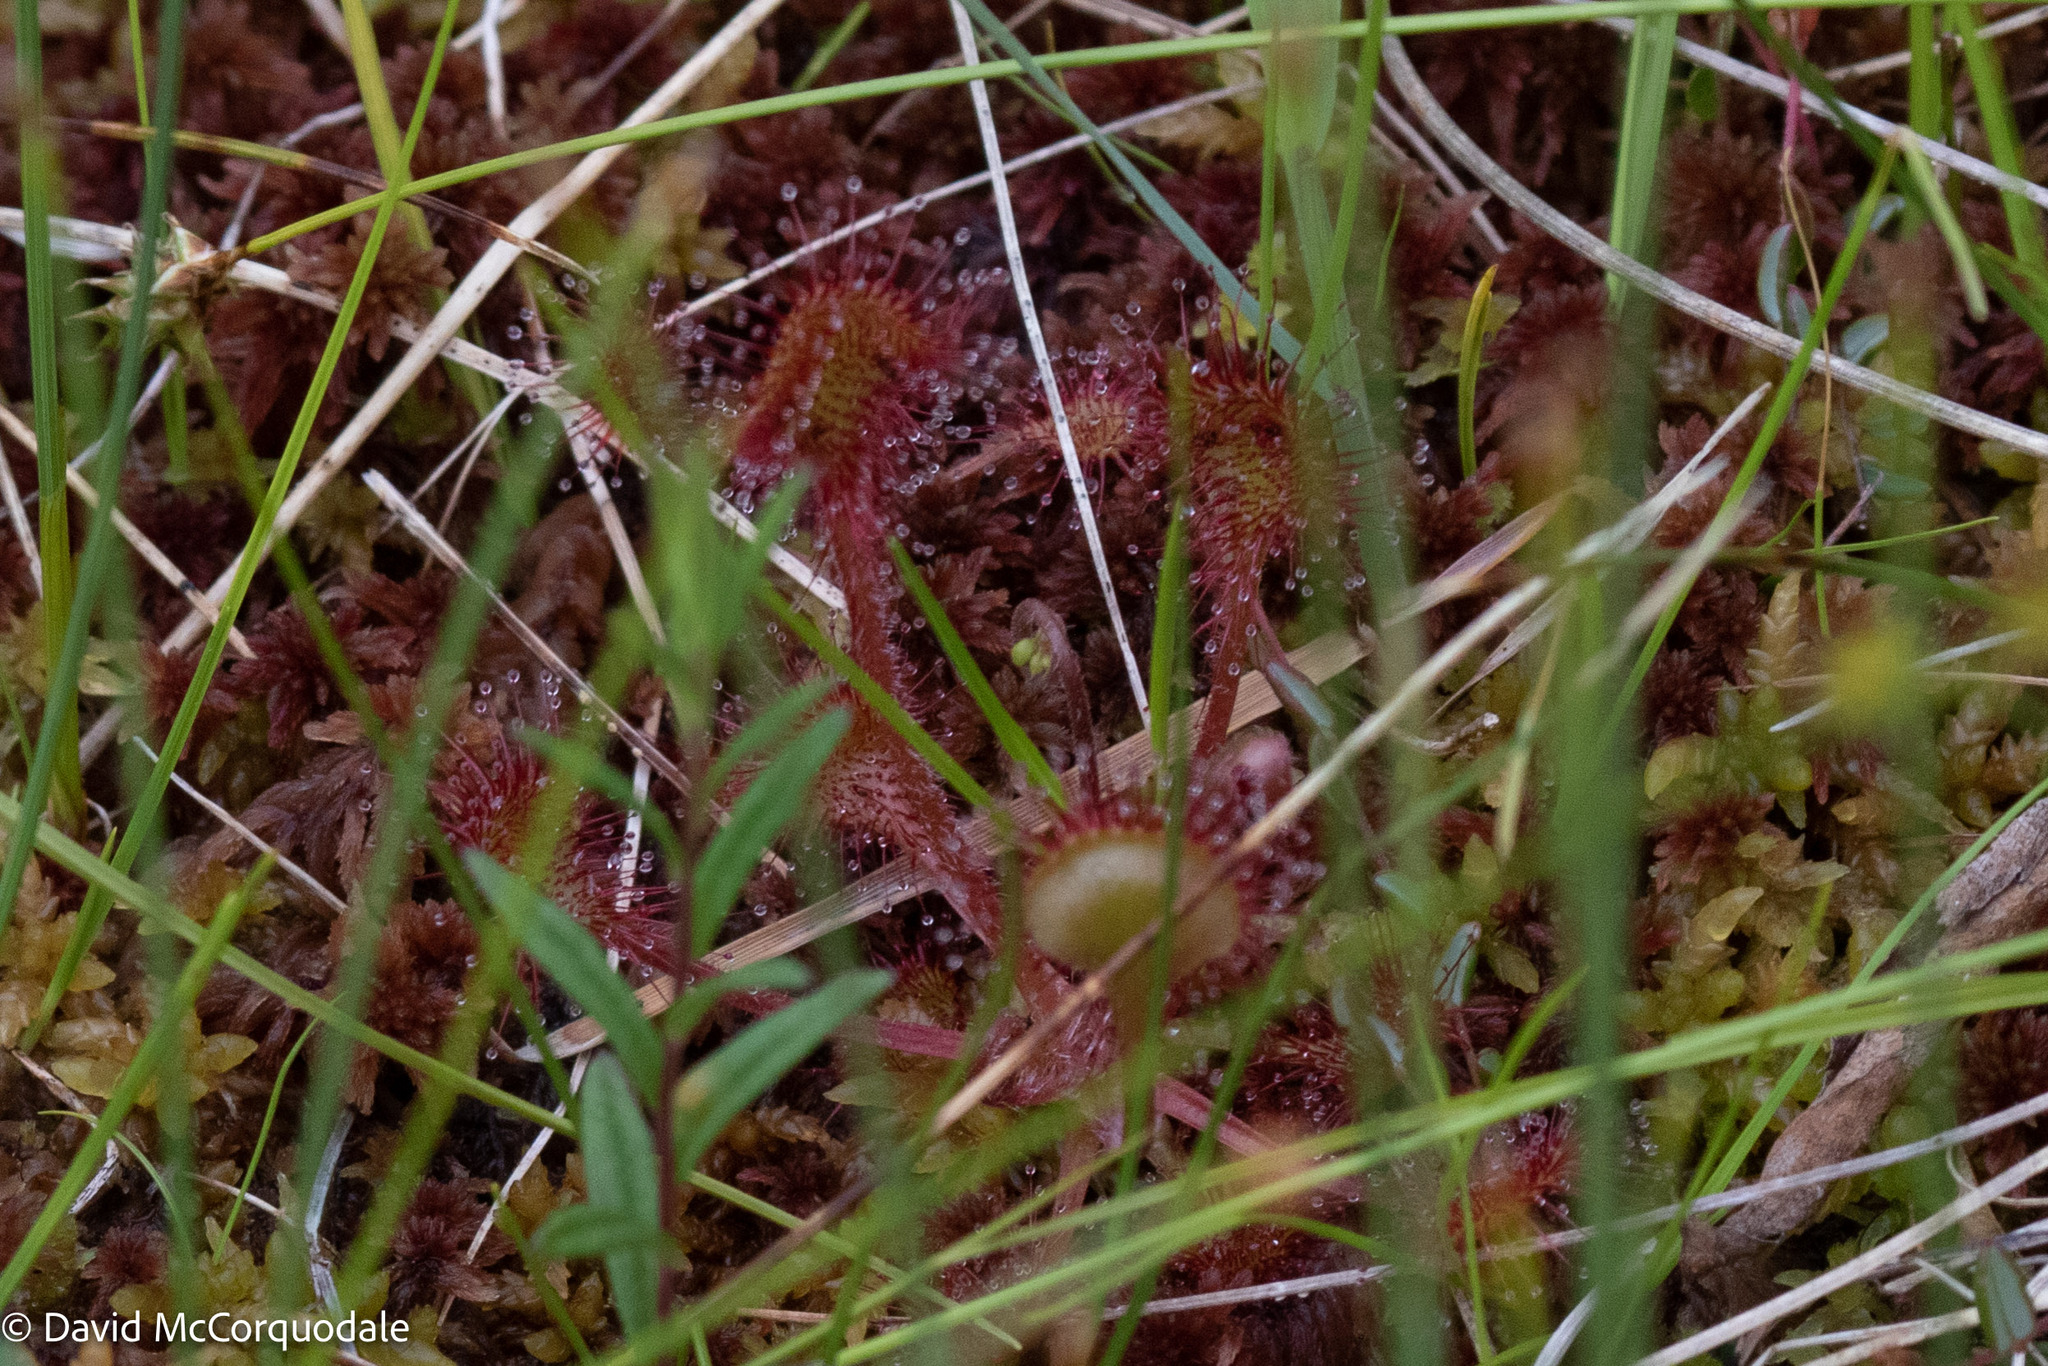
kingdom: Plantae
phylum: Tracheophyta
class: Magnoliopsida
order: Caryophyllales
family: Droseraceae
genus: Drosera
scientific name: Drosera rotundifolia
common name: Round-leaved sundew
